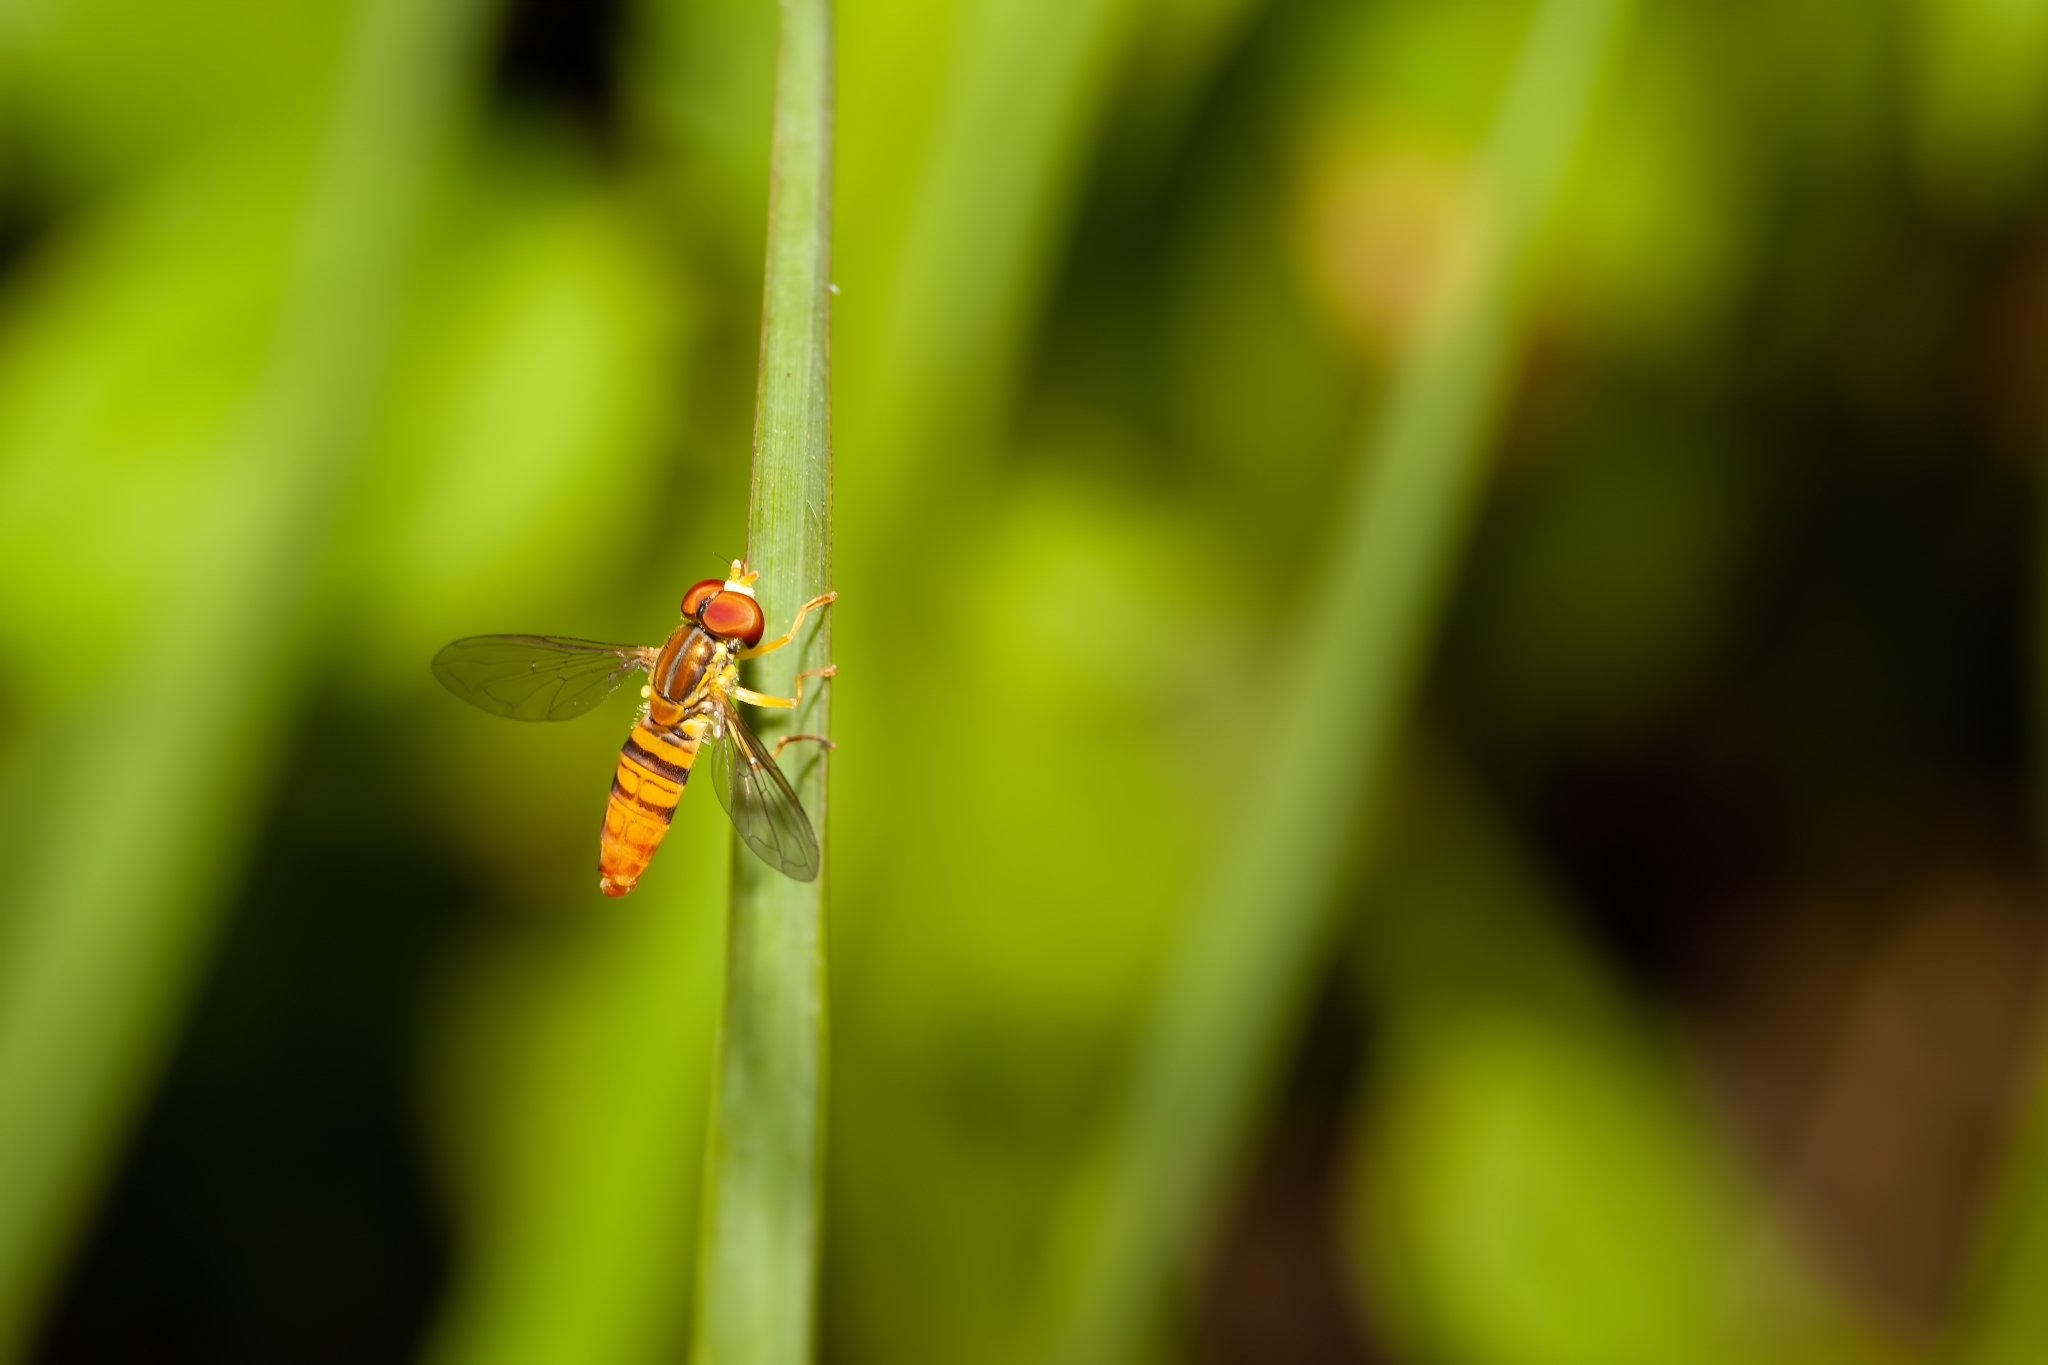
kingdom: Animalia
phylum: Arthropoda
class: Insecta
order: Diptera
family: Syrphidae
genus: Toxomerus
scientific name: Toxomerus politus
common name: Maize calligrapher
